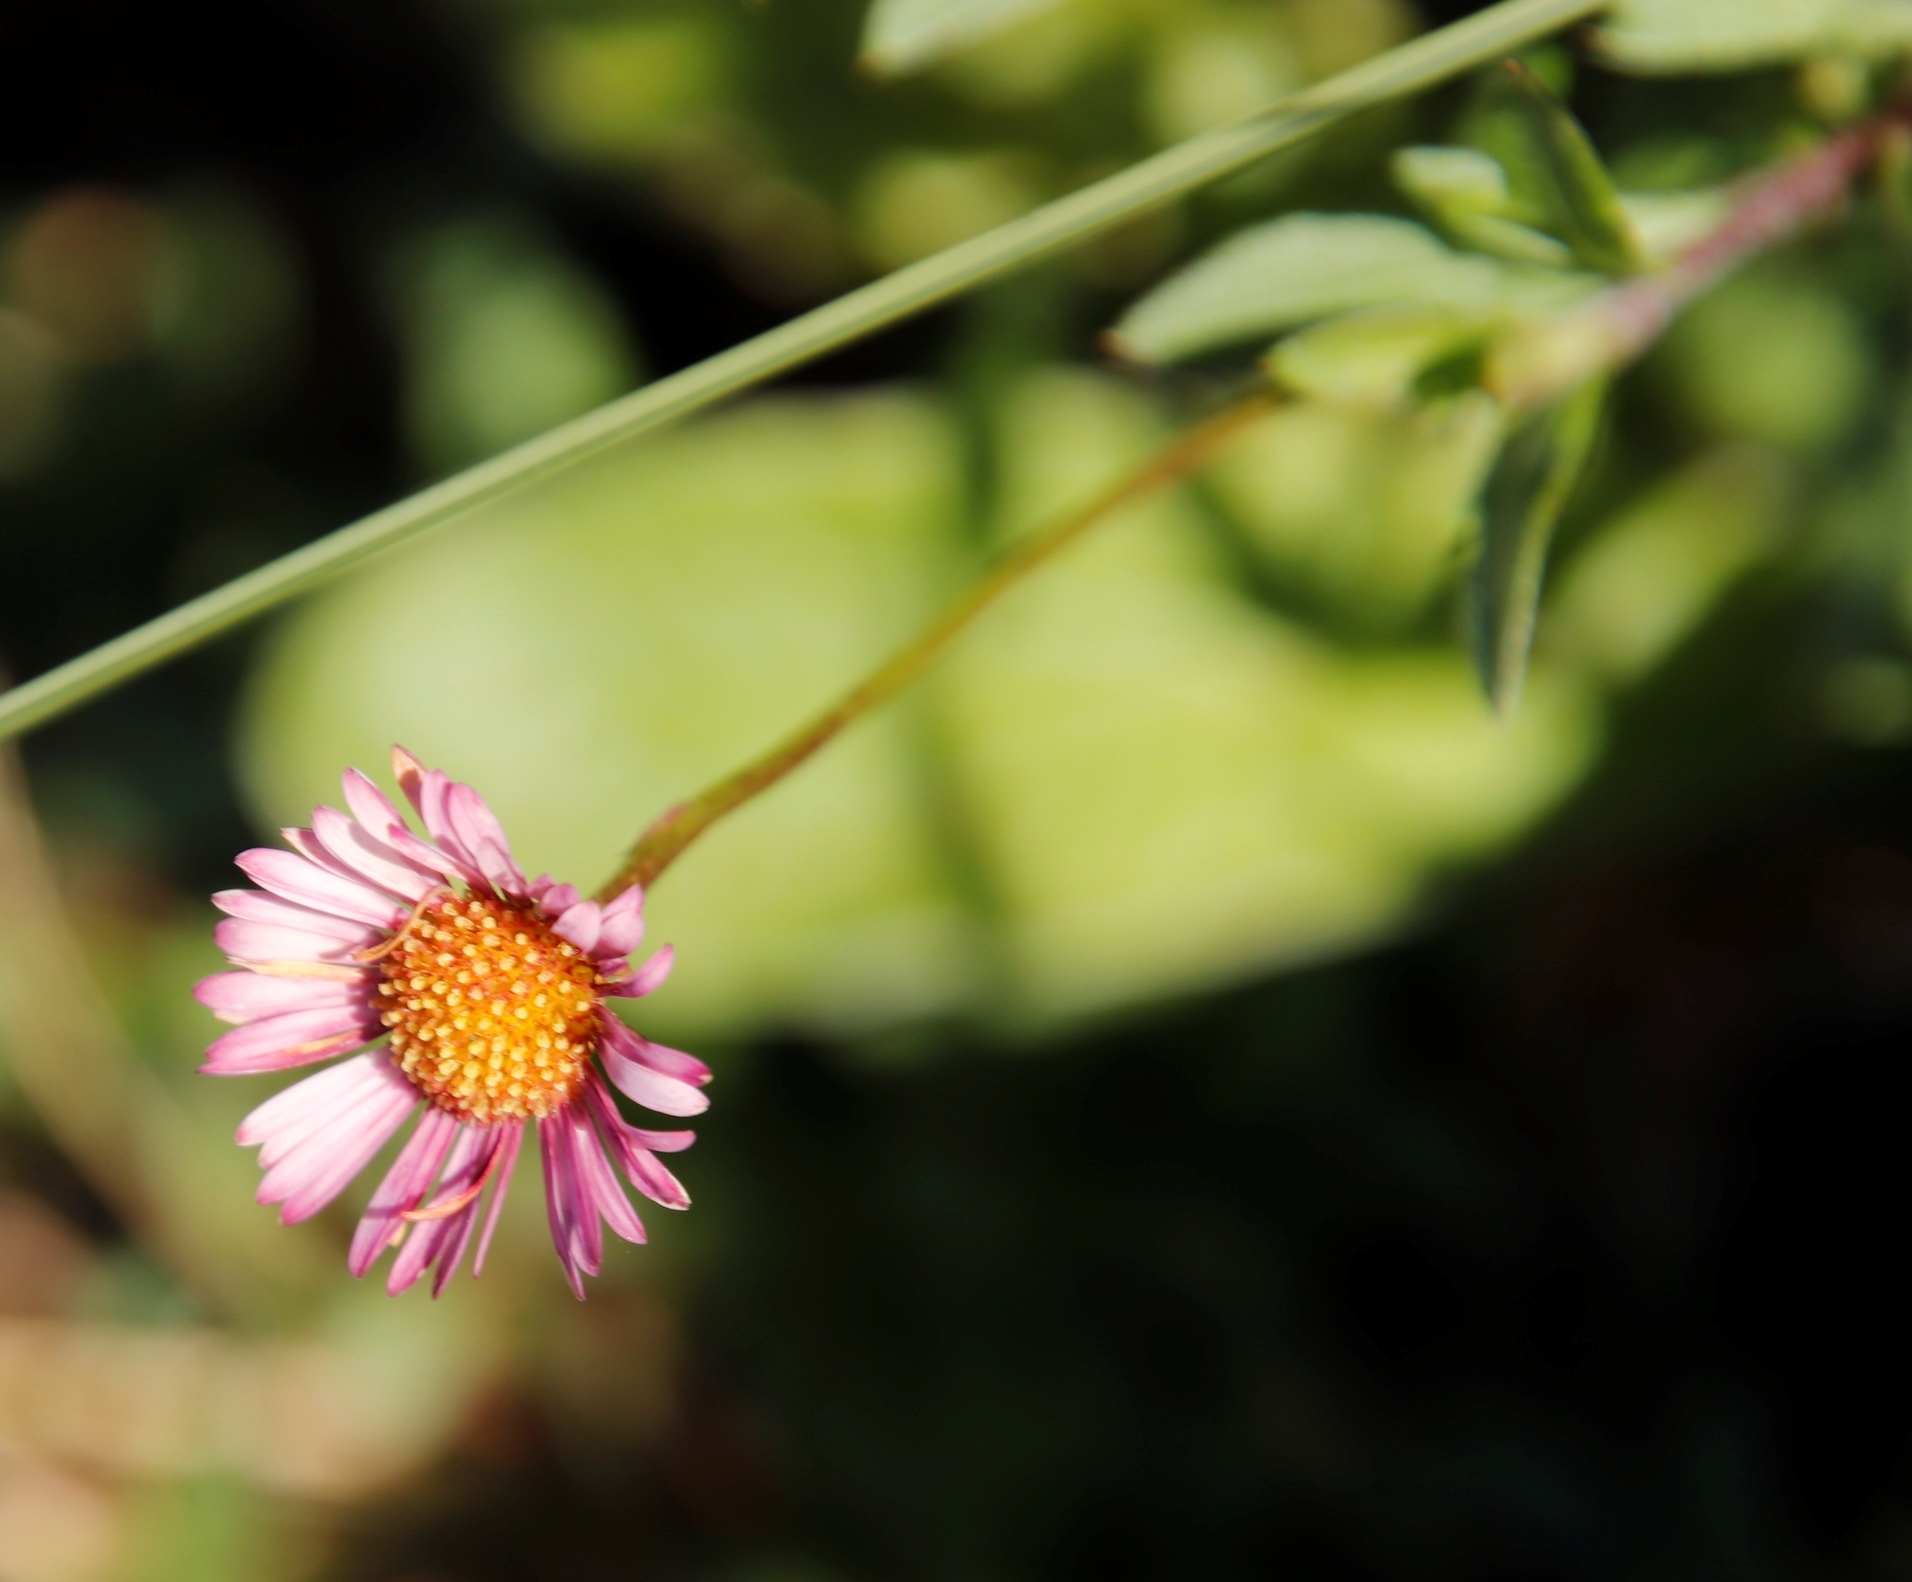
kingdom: Plantae
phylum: Tracheophyta
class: Magnoliopsida
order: Asterales
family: Asteraceae
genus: Erigeron
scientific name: Erigeron karvinskianus
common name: Mexican fleabane
